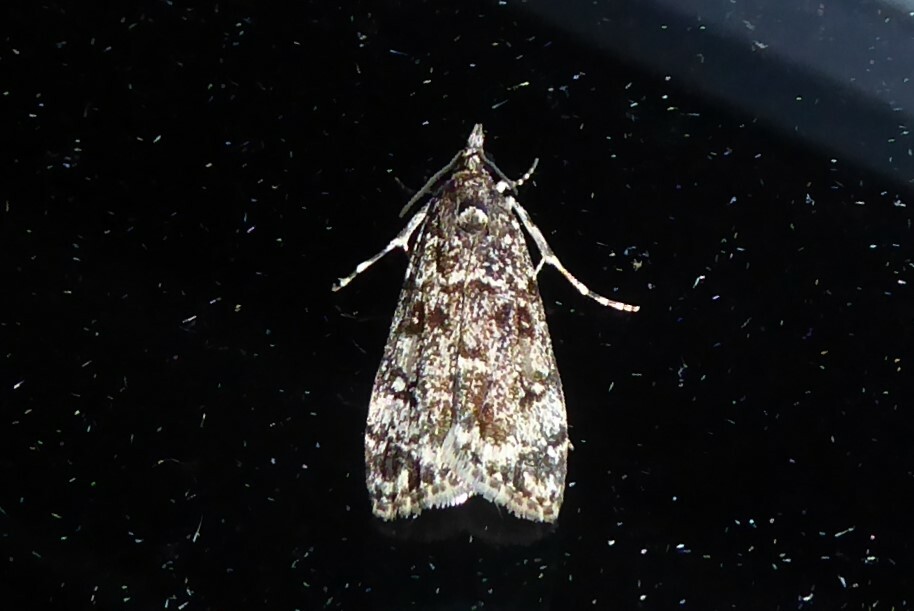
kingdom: Animalia
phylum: Arthropoda
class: Insecta
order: Lepidoptera
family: Crambidae
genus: Eudonia
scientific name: Eudonia philerga
